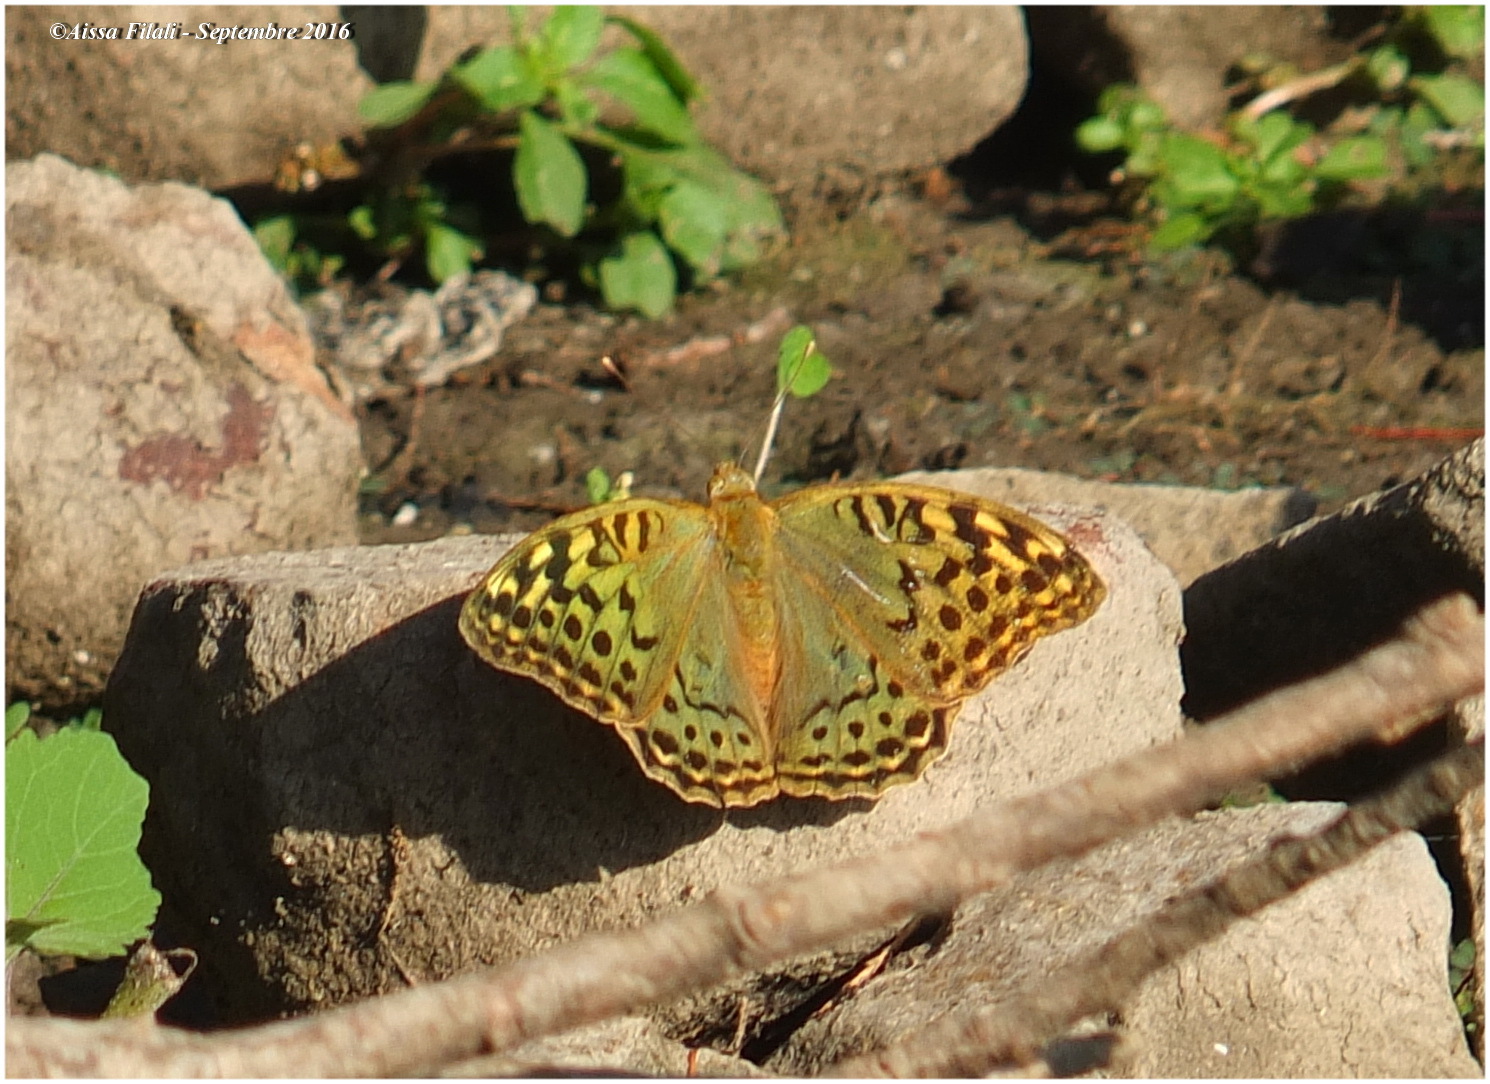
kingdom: Animalia
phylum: Arthropoda
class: Insecta
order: Lepidoptera
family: Nymphalidae
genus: Damora
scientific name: Damora pandora
